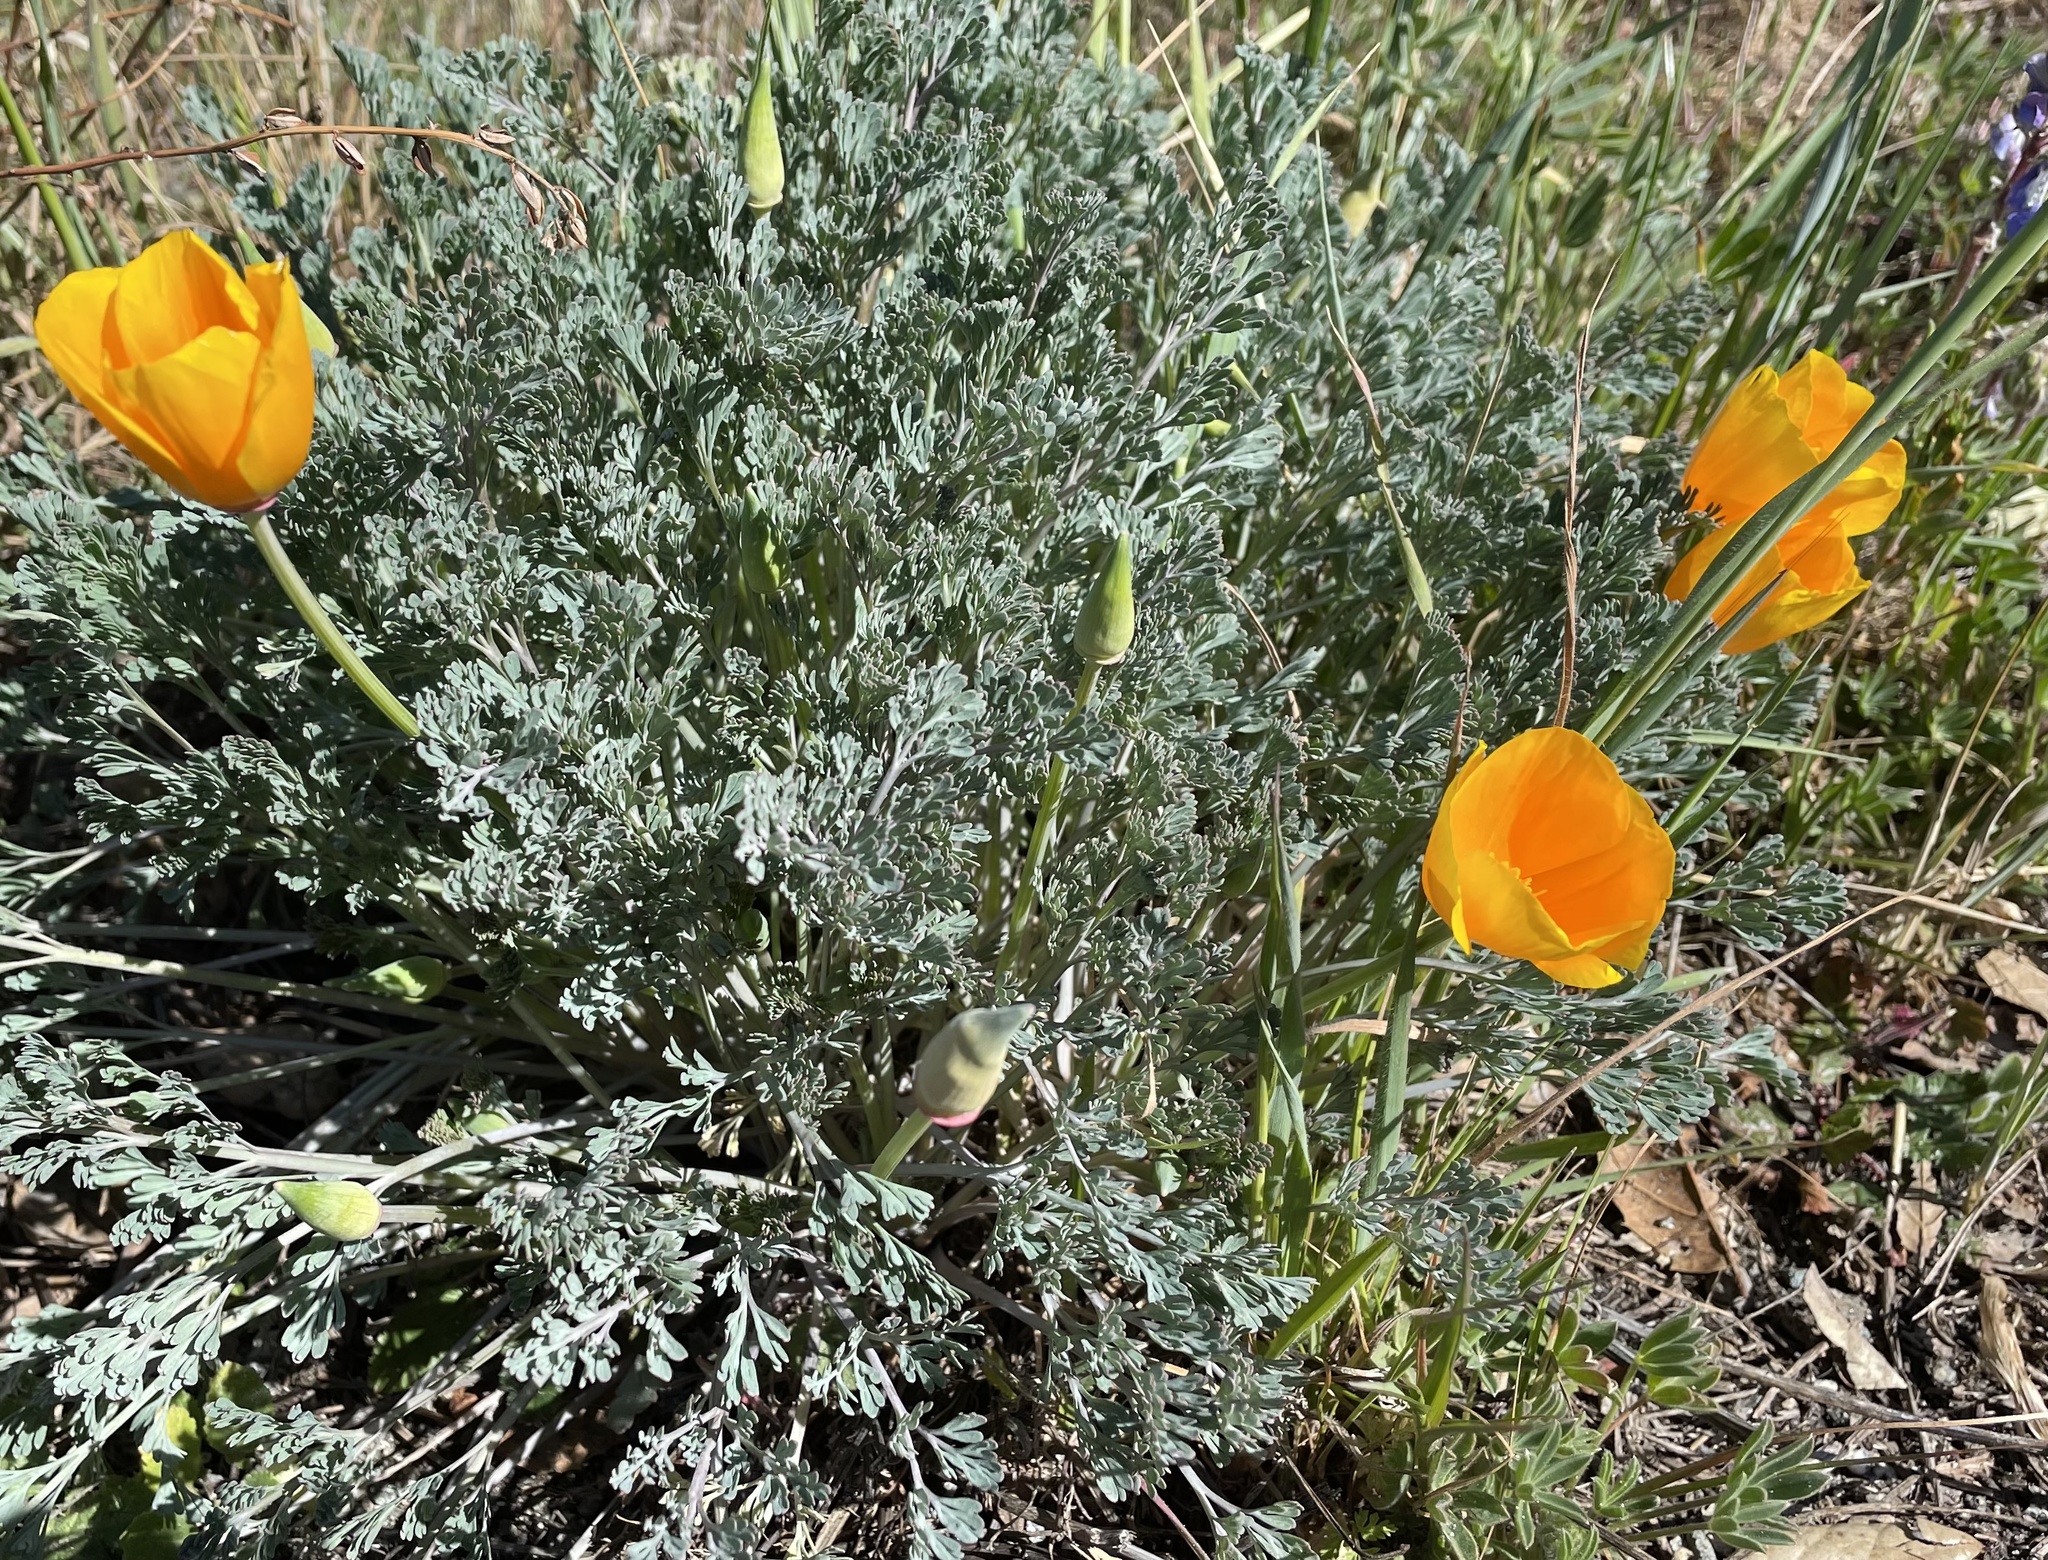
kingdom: Plantae
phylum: Tracheophyta
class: Magnoliopsida
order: Ranunculales
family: Papaveraceae
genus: Eschscholzia
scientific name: Eschscholzia californica
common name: California poppy
